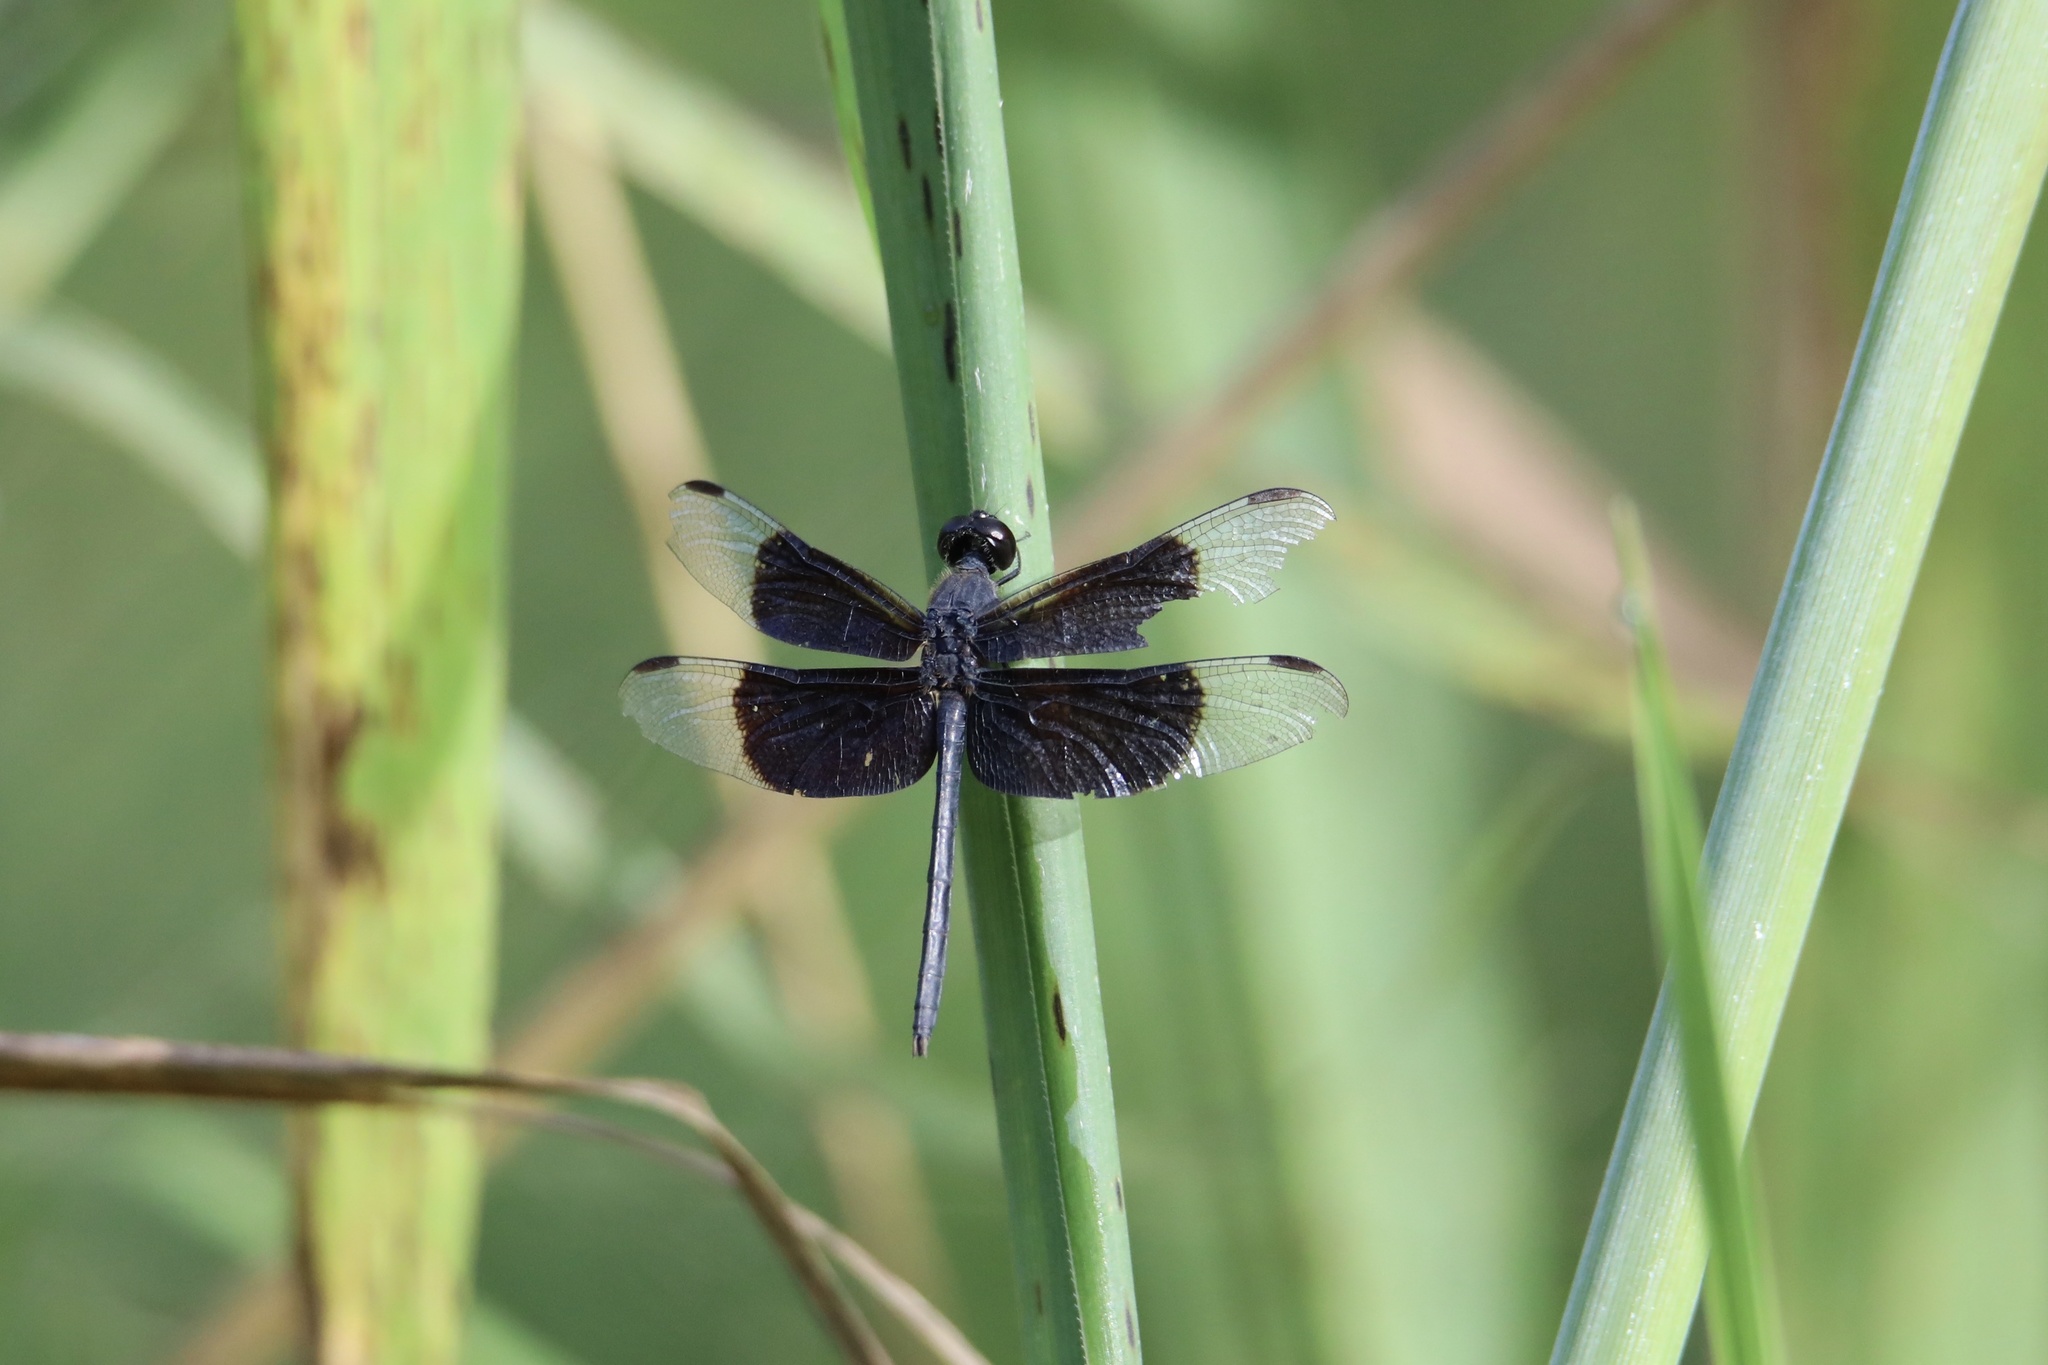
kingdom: Animalia
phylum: Arthropoda
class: Insecta
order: Odonata
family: Libellulidae
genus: Erythrodiplax
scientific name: Erythrodiplax funerea
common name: Black-winged dragonlet
